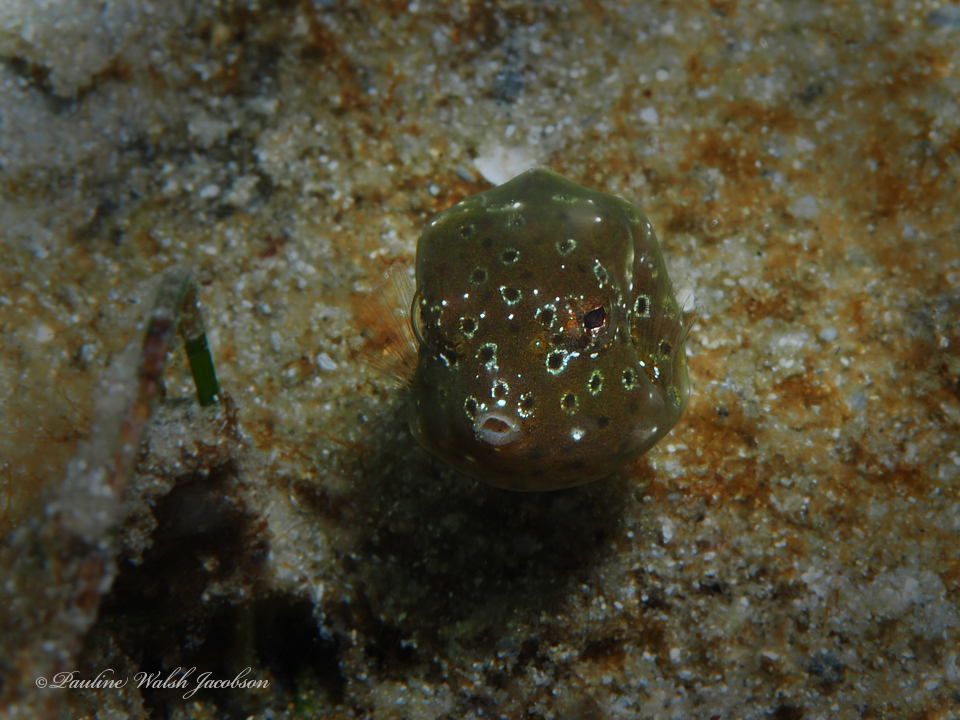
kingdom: Animalia
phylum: Chordata
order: Tetraodontiformes
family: Ostraciidae
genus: Lactophrys
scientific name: Lactophrys trigonus
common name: Buffalo trunkfish
